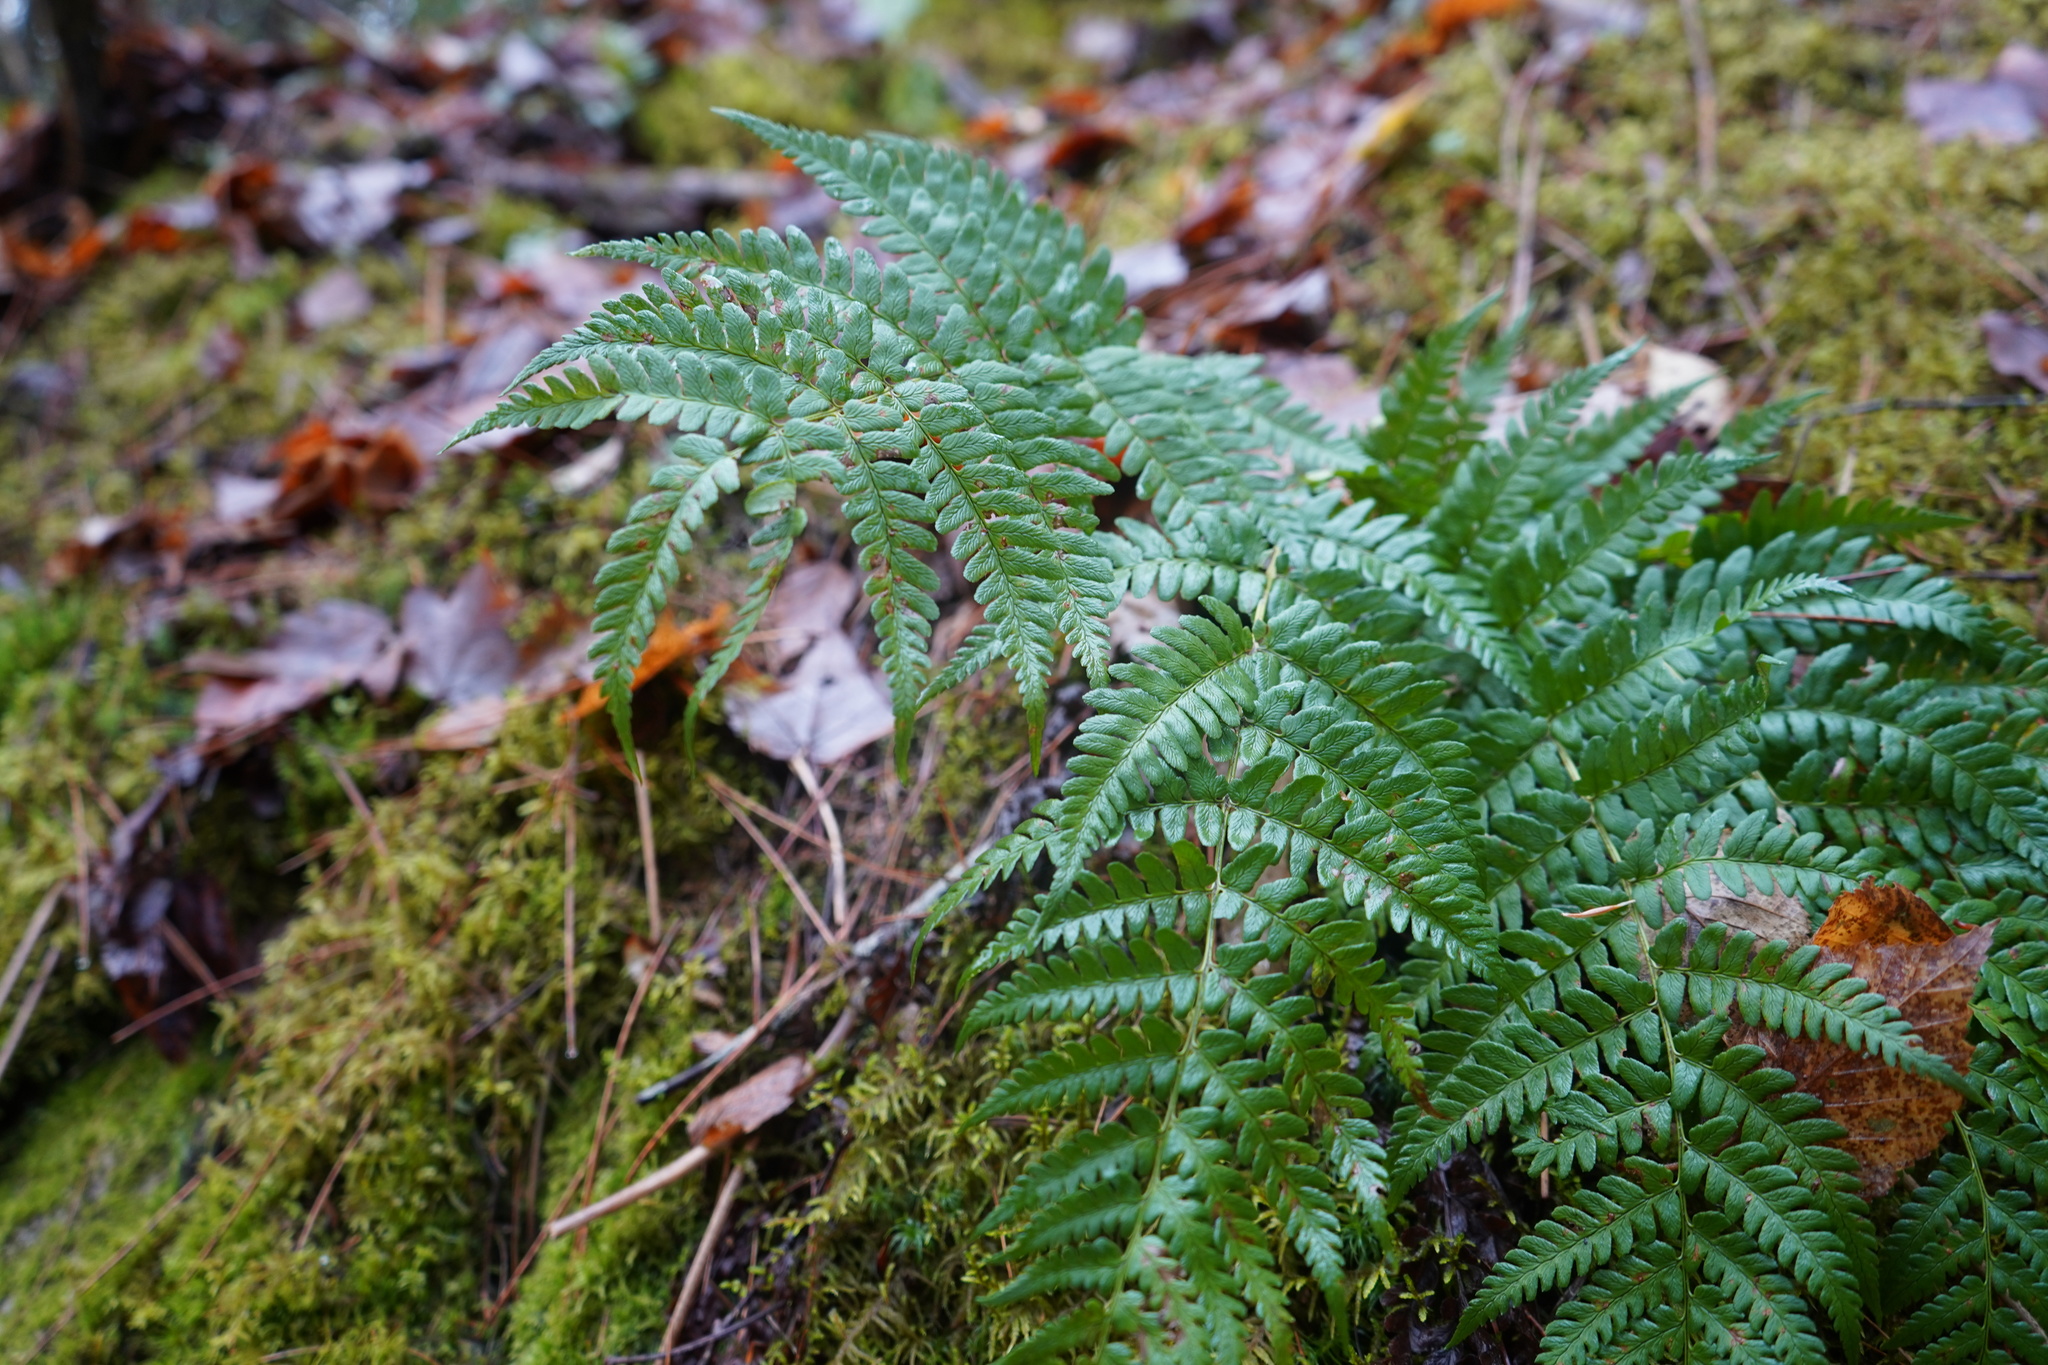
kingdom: Plantae
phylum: Tracheophyta
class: Polypodiopsida
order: Polypodiales
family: Dryopteridaceae
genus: Dryopteris
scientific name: Dryopteris marginalis
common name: Marginal wood fern
